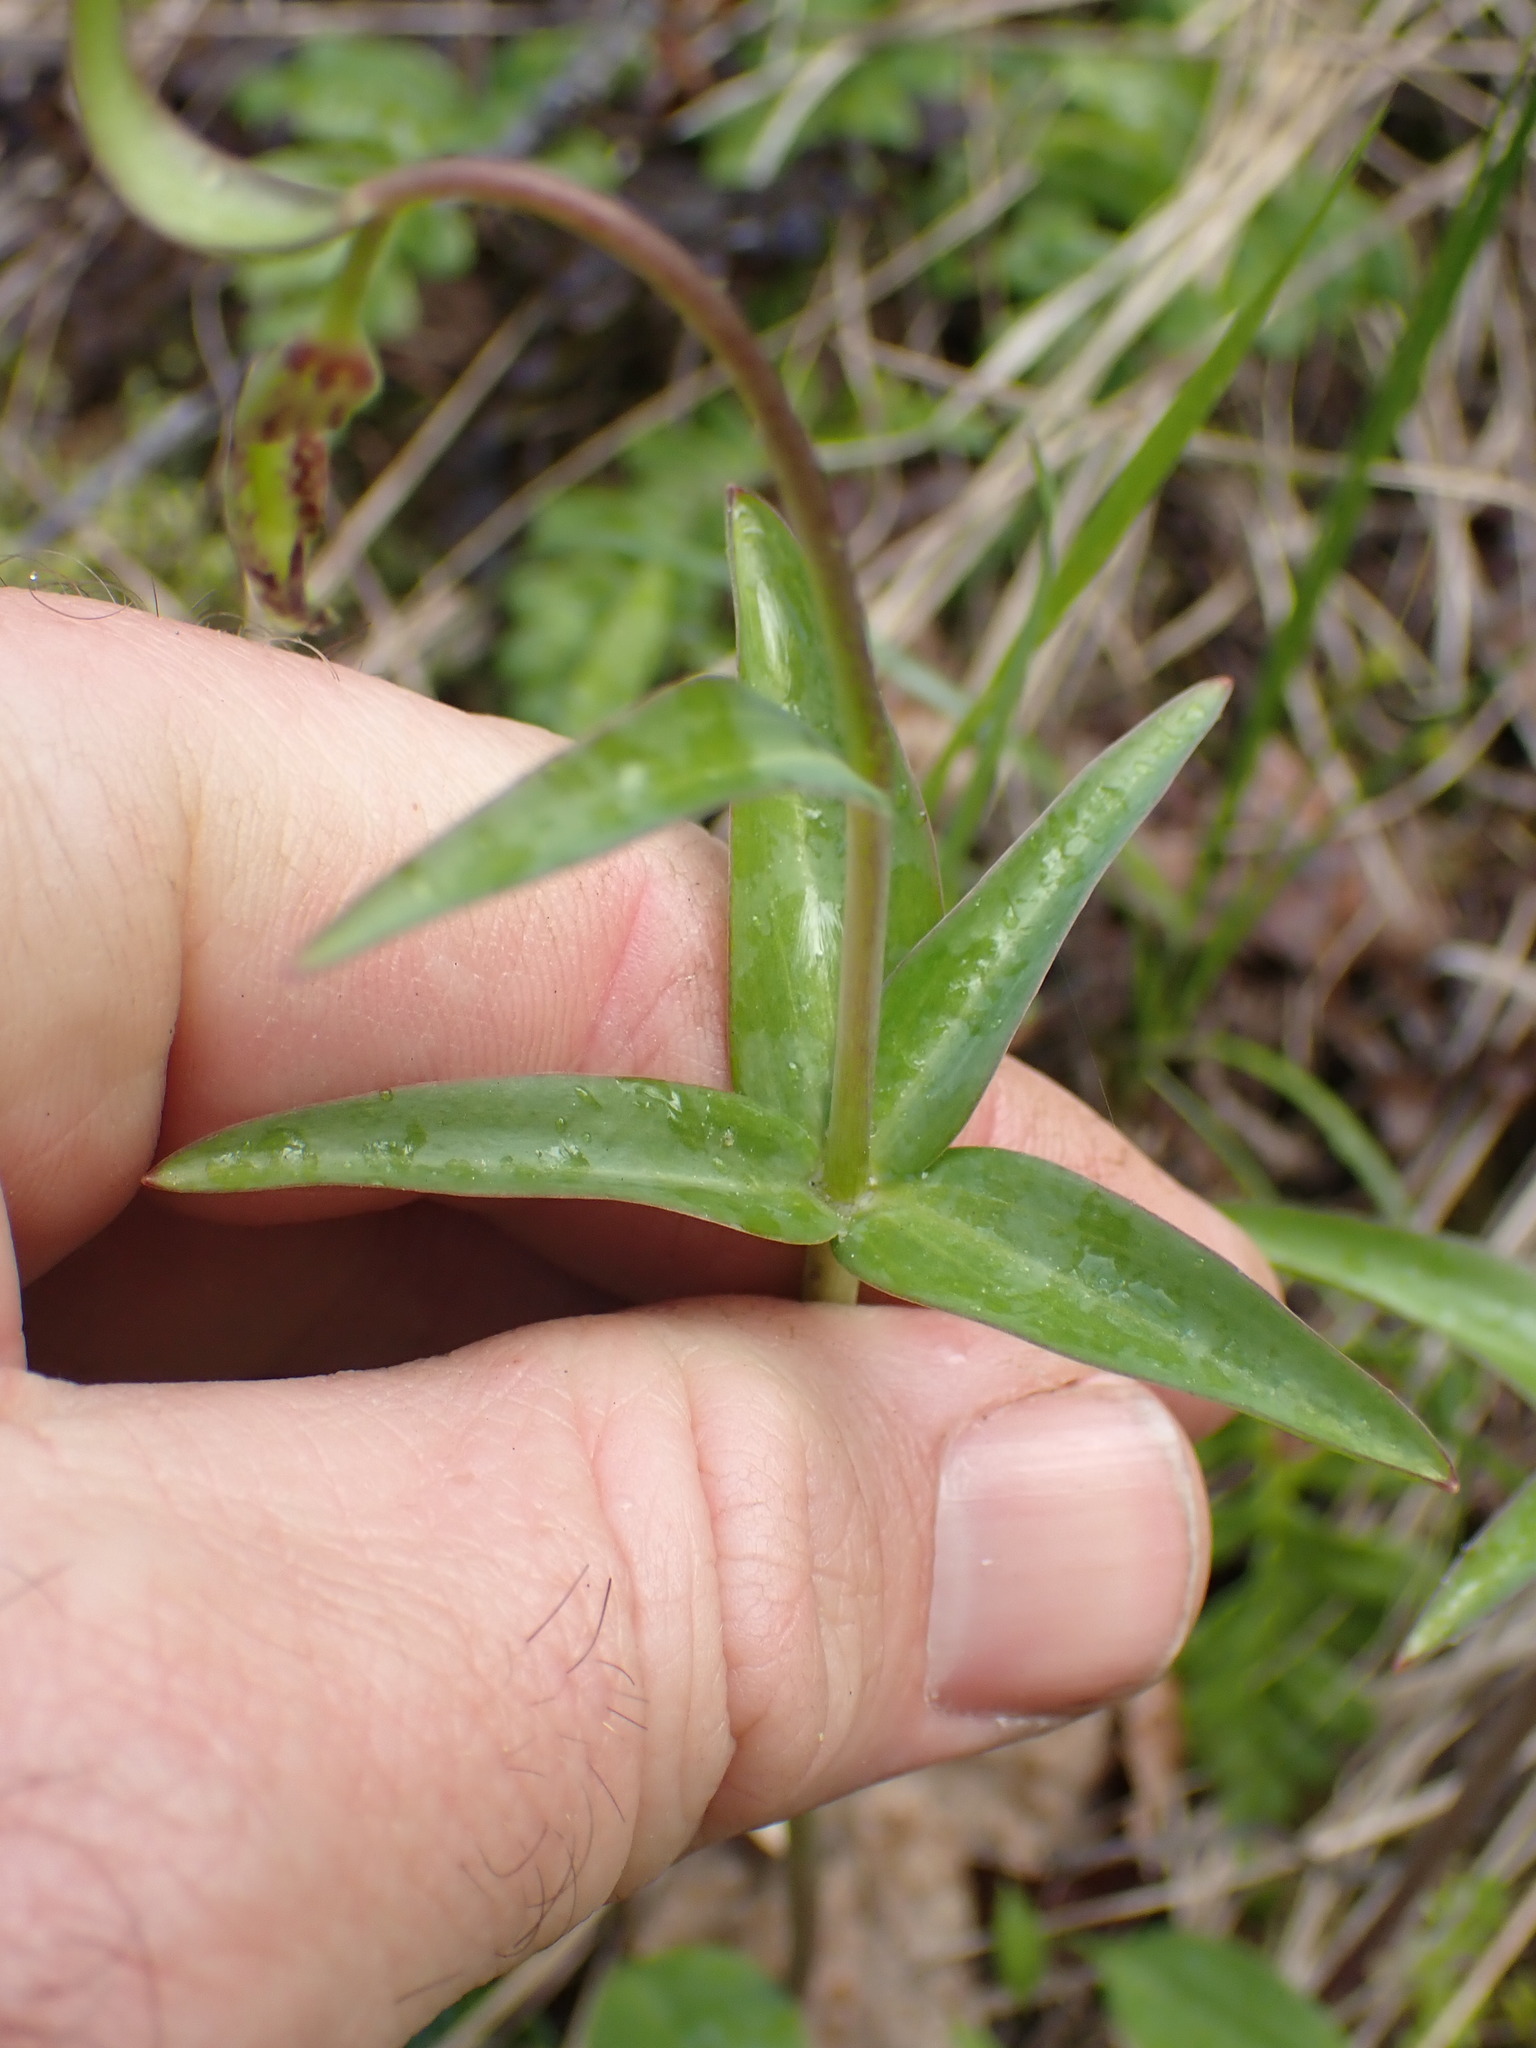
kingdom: Plantae
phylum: Tracheophyta
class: Liliopsida
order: Liliales
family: Liliaceae
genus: Fritillaria
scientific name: Fritillaria affinis
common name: Ojai fritillary
